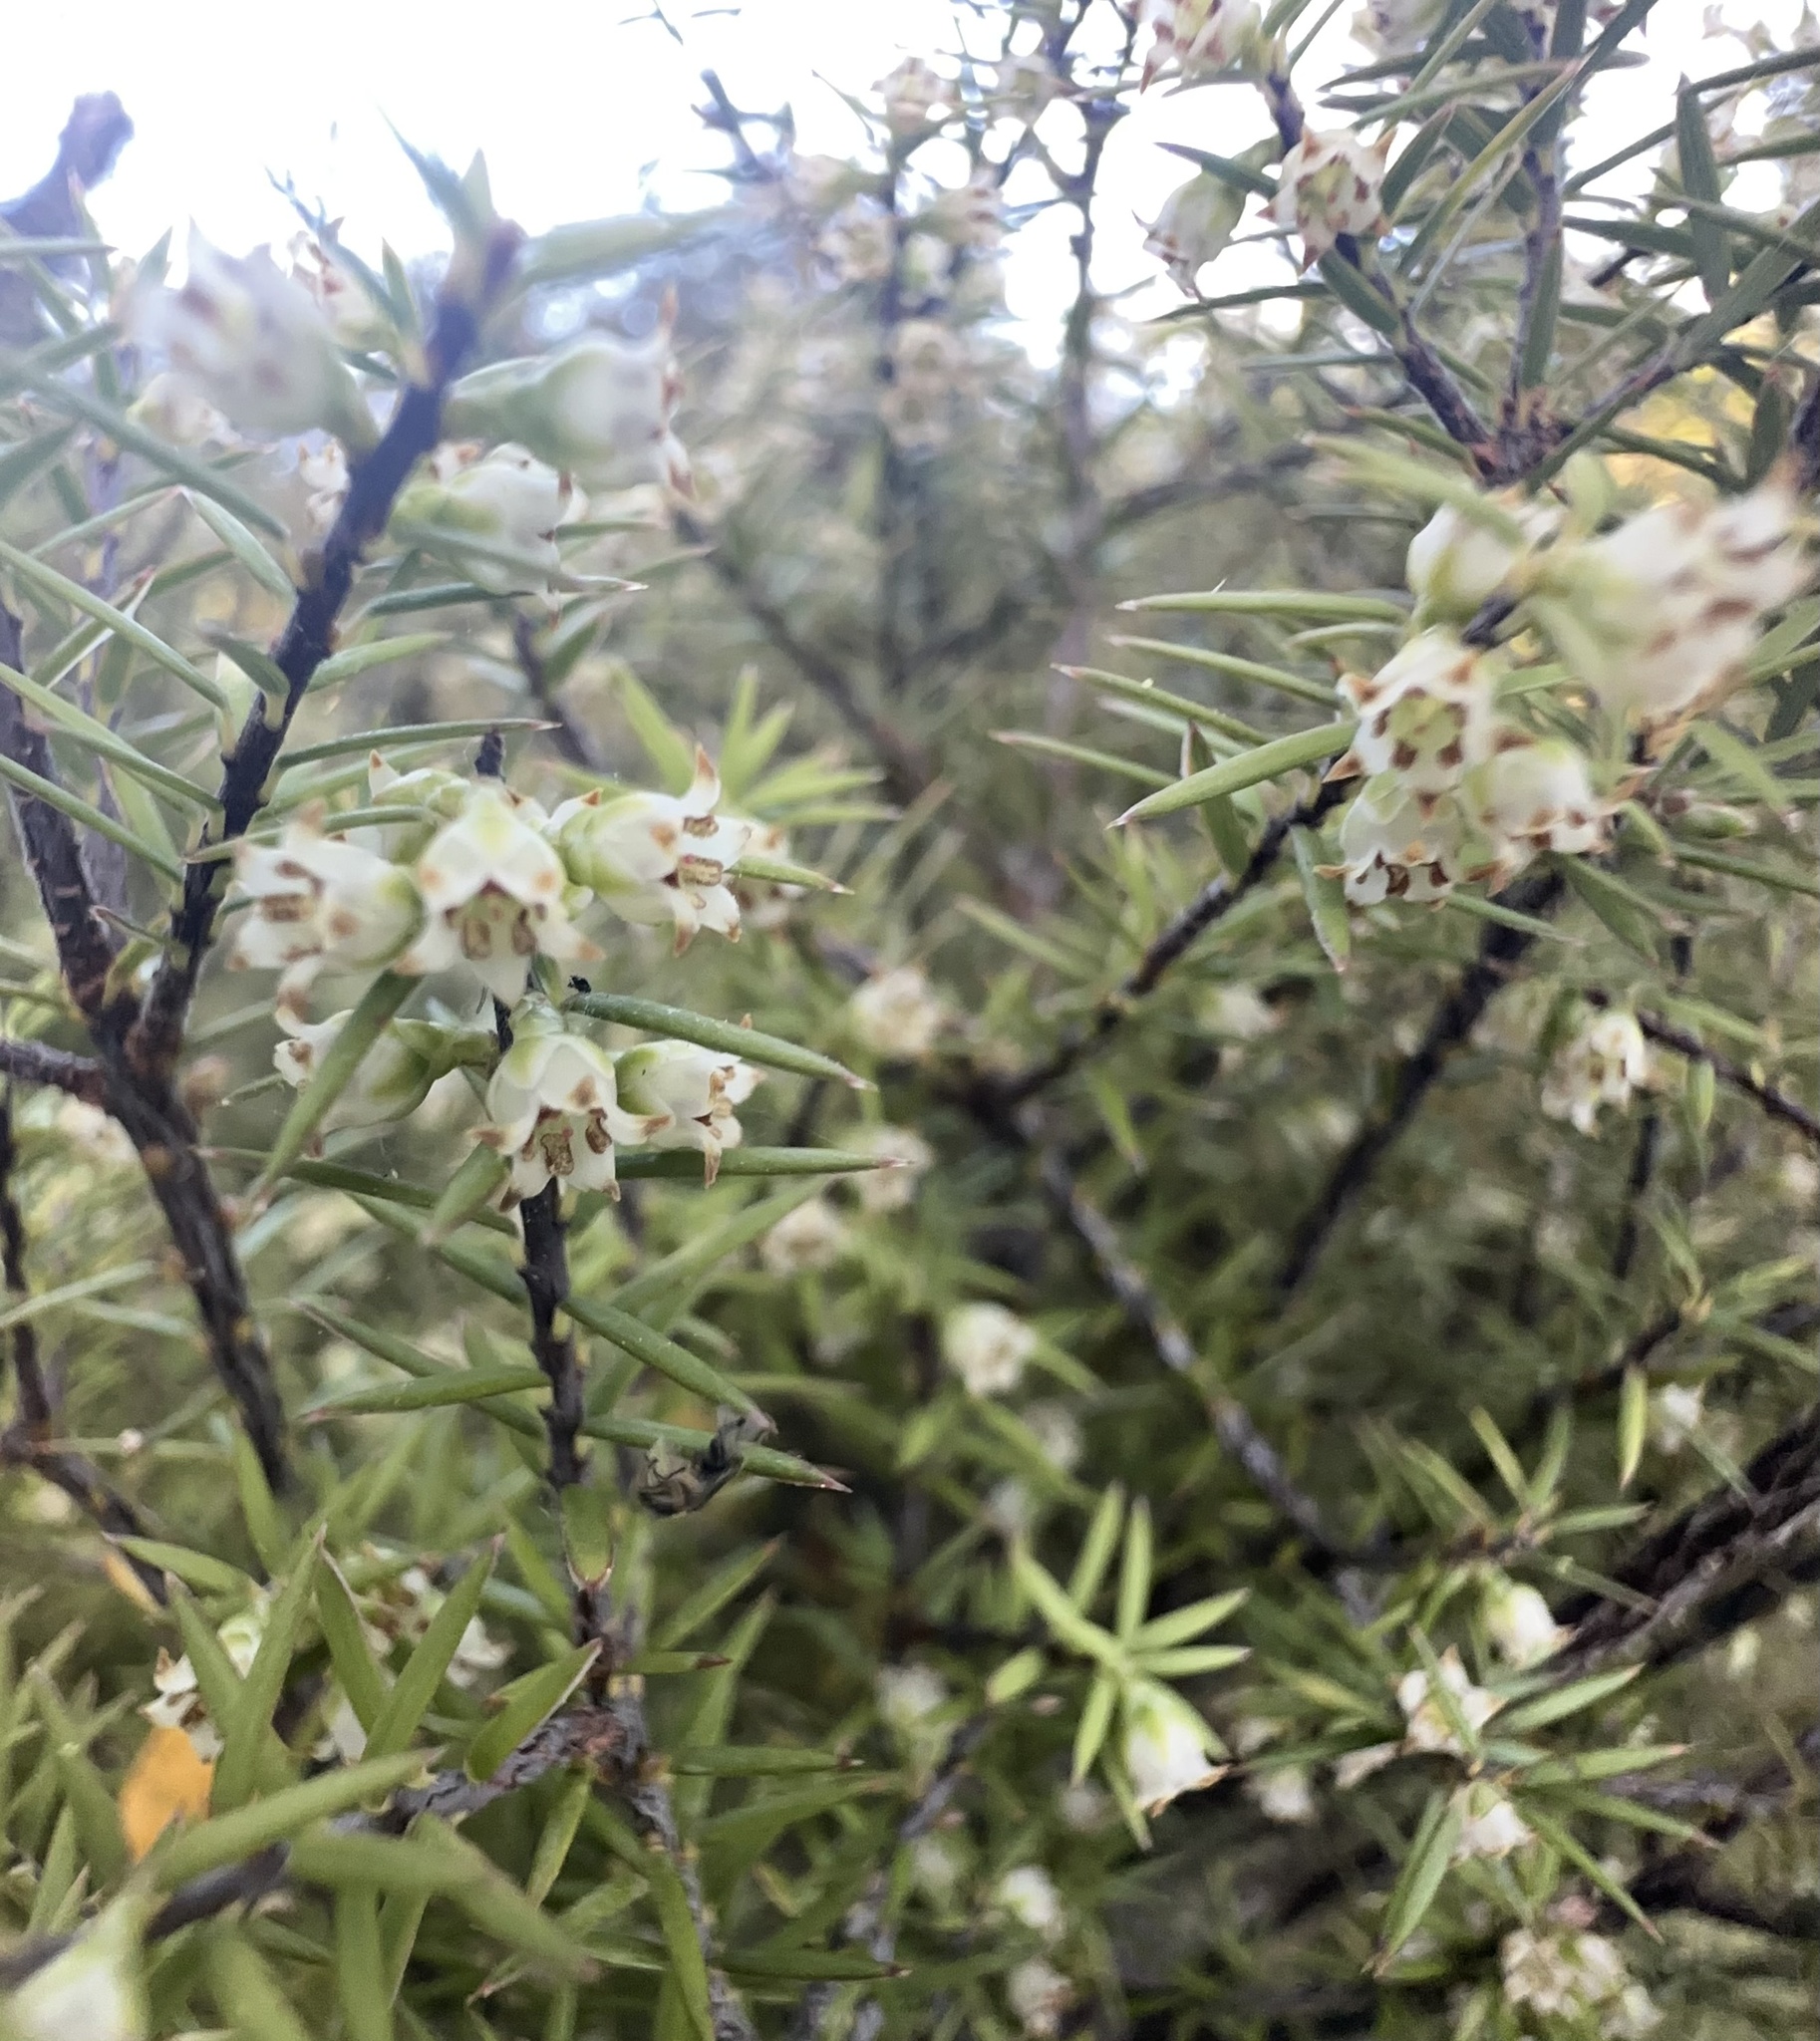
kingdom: Plantae
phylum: Tracheophyta
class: Magnoliopsida
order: Ericales
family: Ericaceae
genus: Leptecophylla
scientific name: Leptecophylla juniperina
